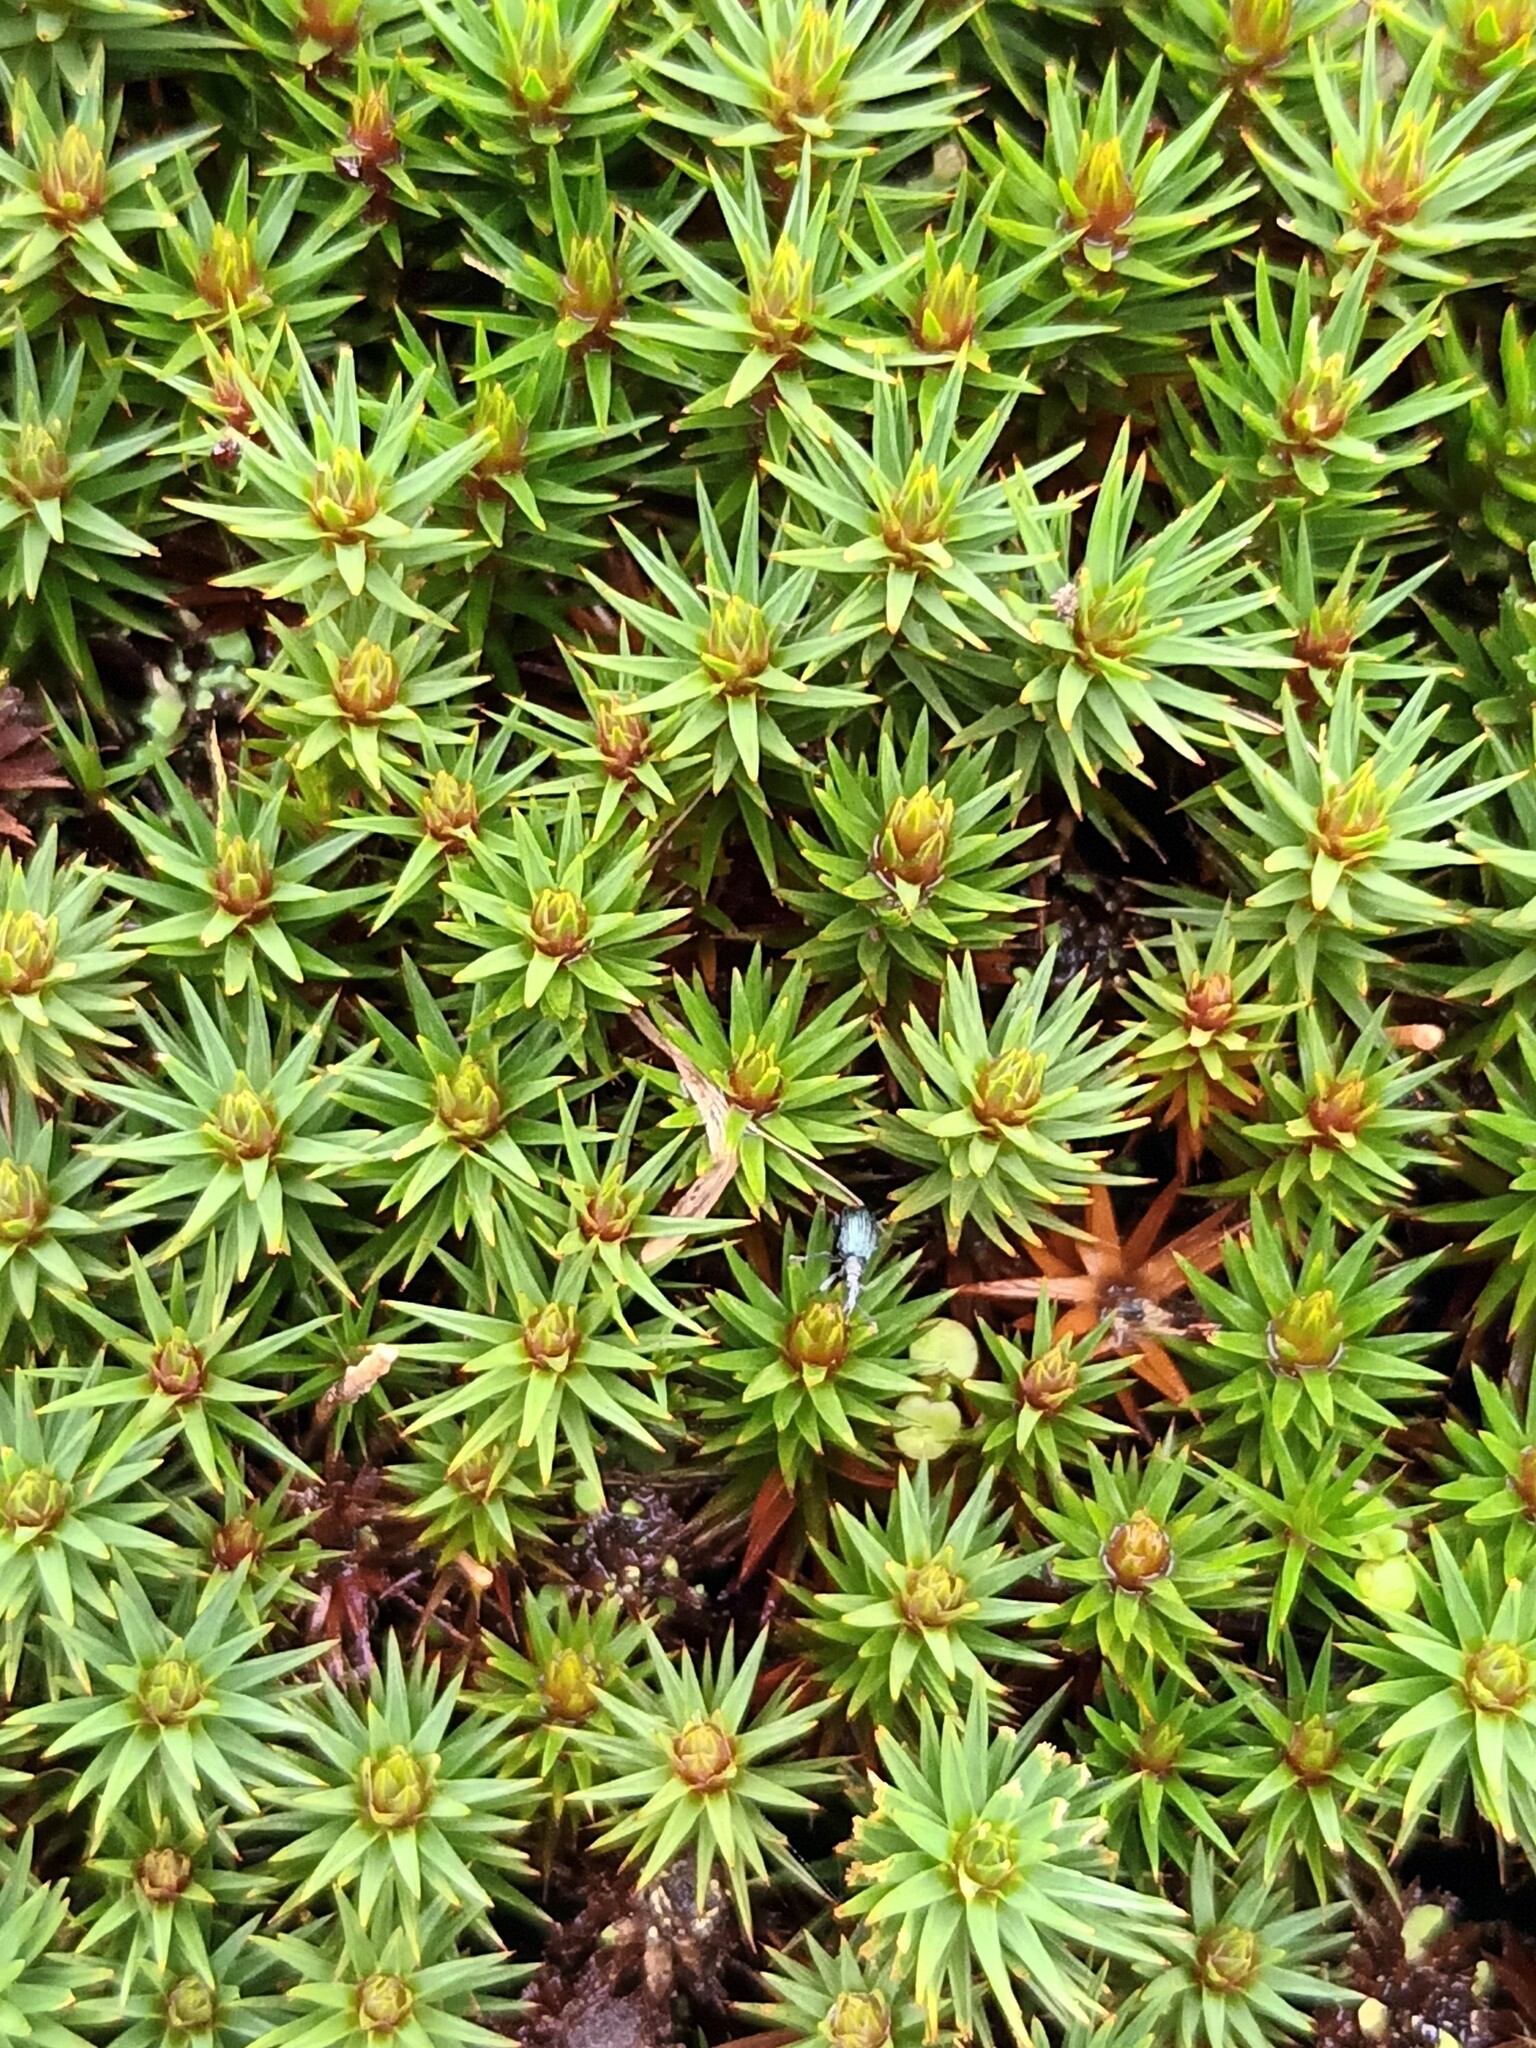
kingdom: Plantae
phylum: Bryophyta
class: Polytrichopsida
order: Polytrichales
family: Polytrichaceae
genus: Pogonatum
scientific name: Pogonatum urnigerum
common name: Urn hair moss
